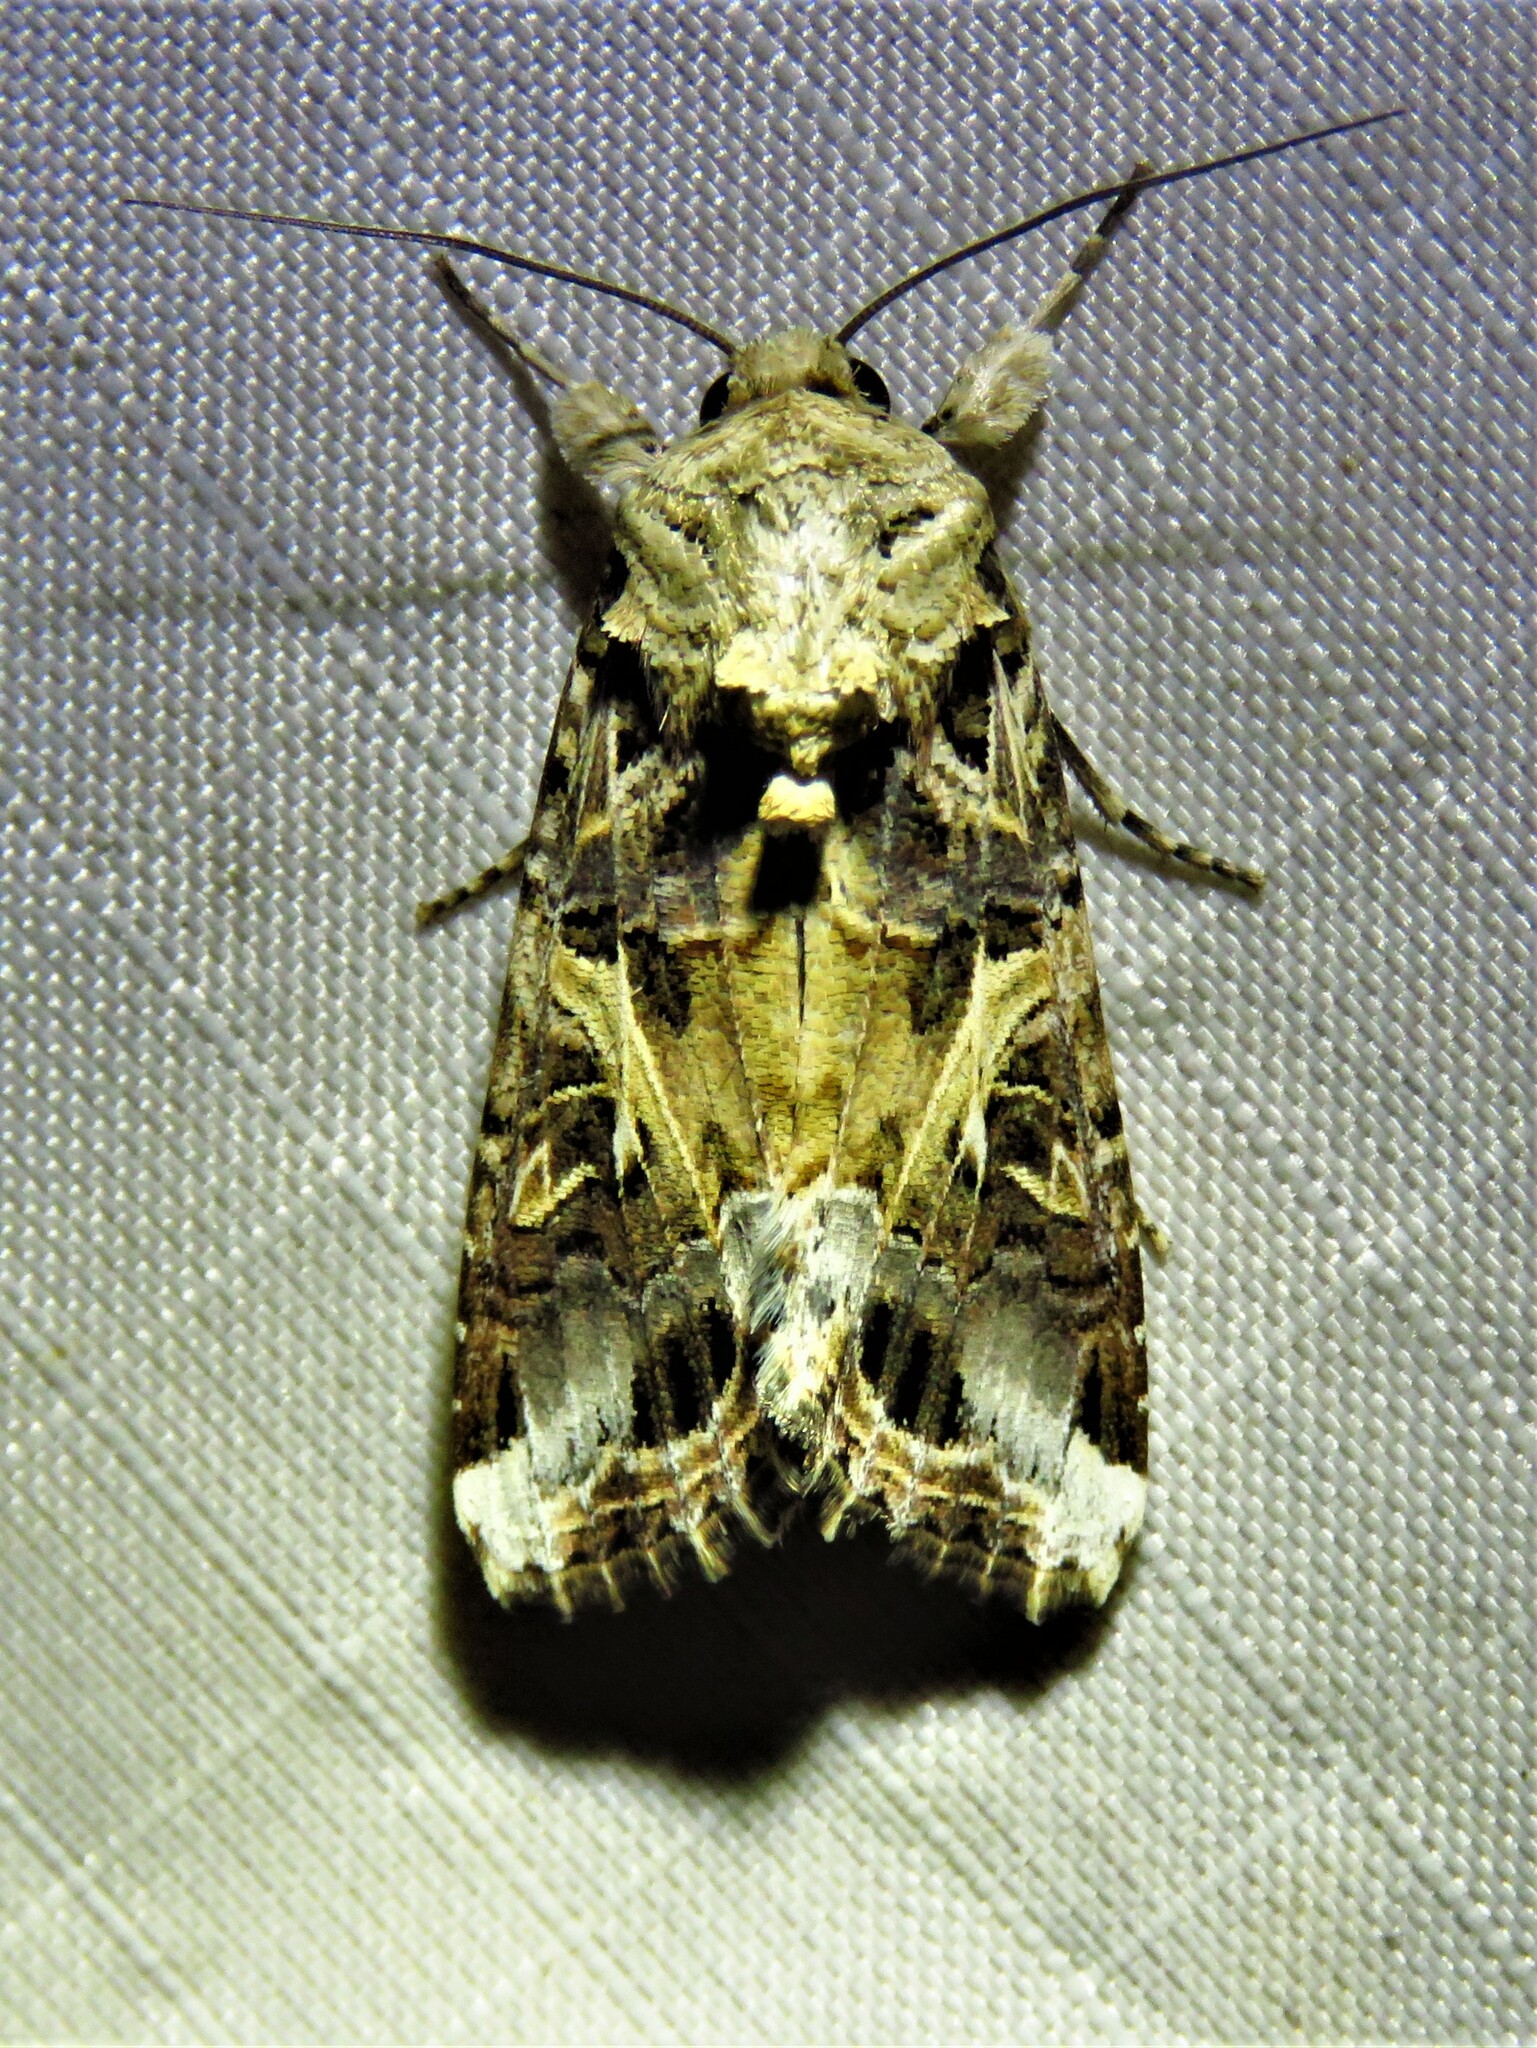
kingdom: Animalia
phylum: Arthropoda
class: Insecta
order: Lepidoptera
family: Noctuidae
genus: Spodoptera
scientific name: Spodoptera ornithogalli
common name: Yellow-striped armyworm
